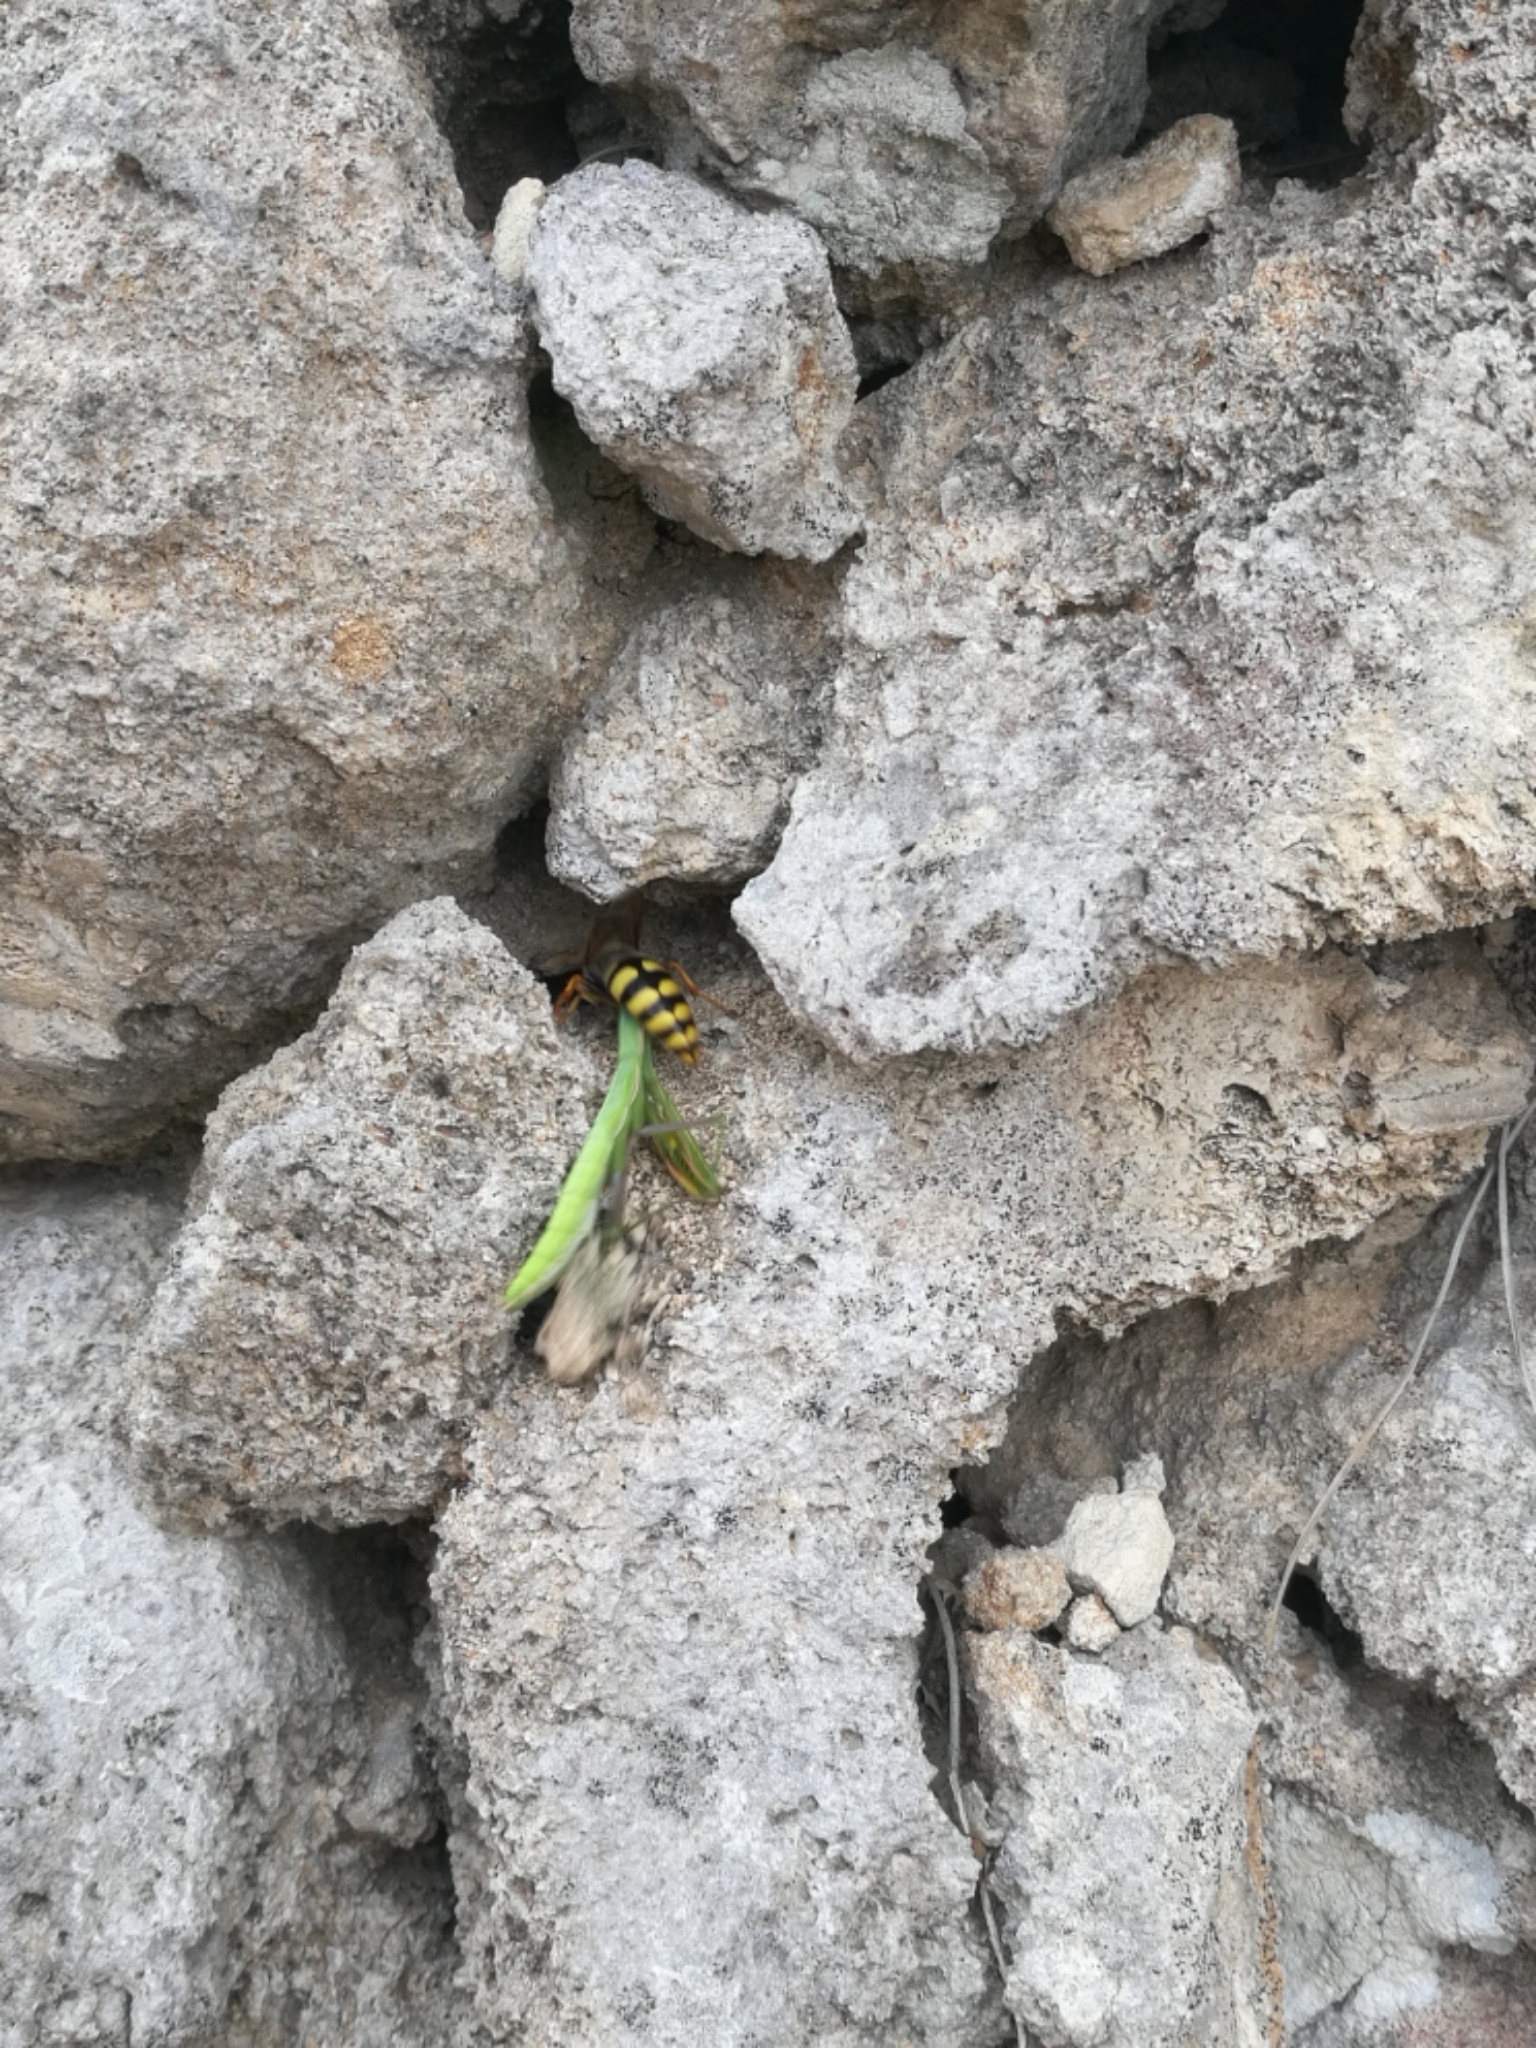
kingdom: Animalia
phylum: Arthropoda
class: Insecta
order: Hymenoptera
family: Crabronidae
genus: Stizus
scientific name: Stizus ruficornis
